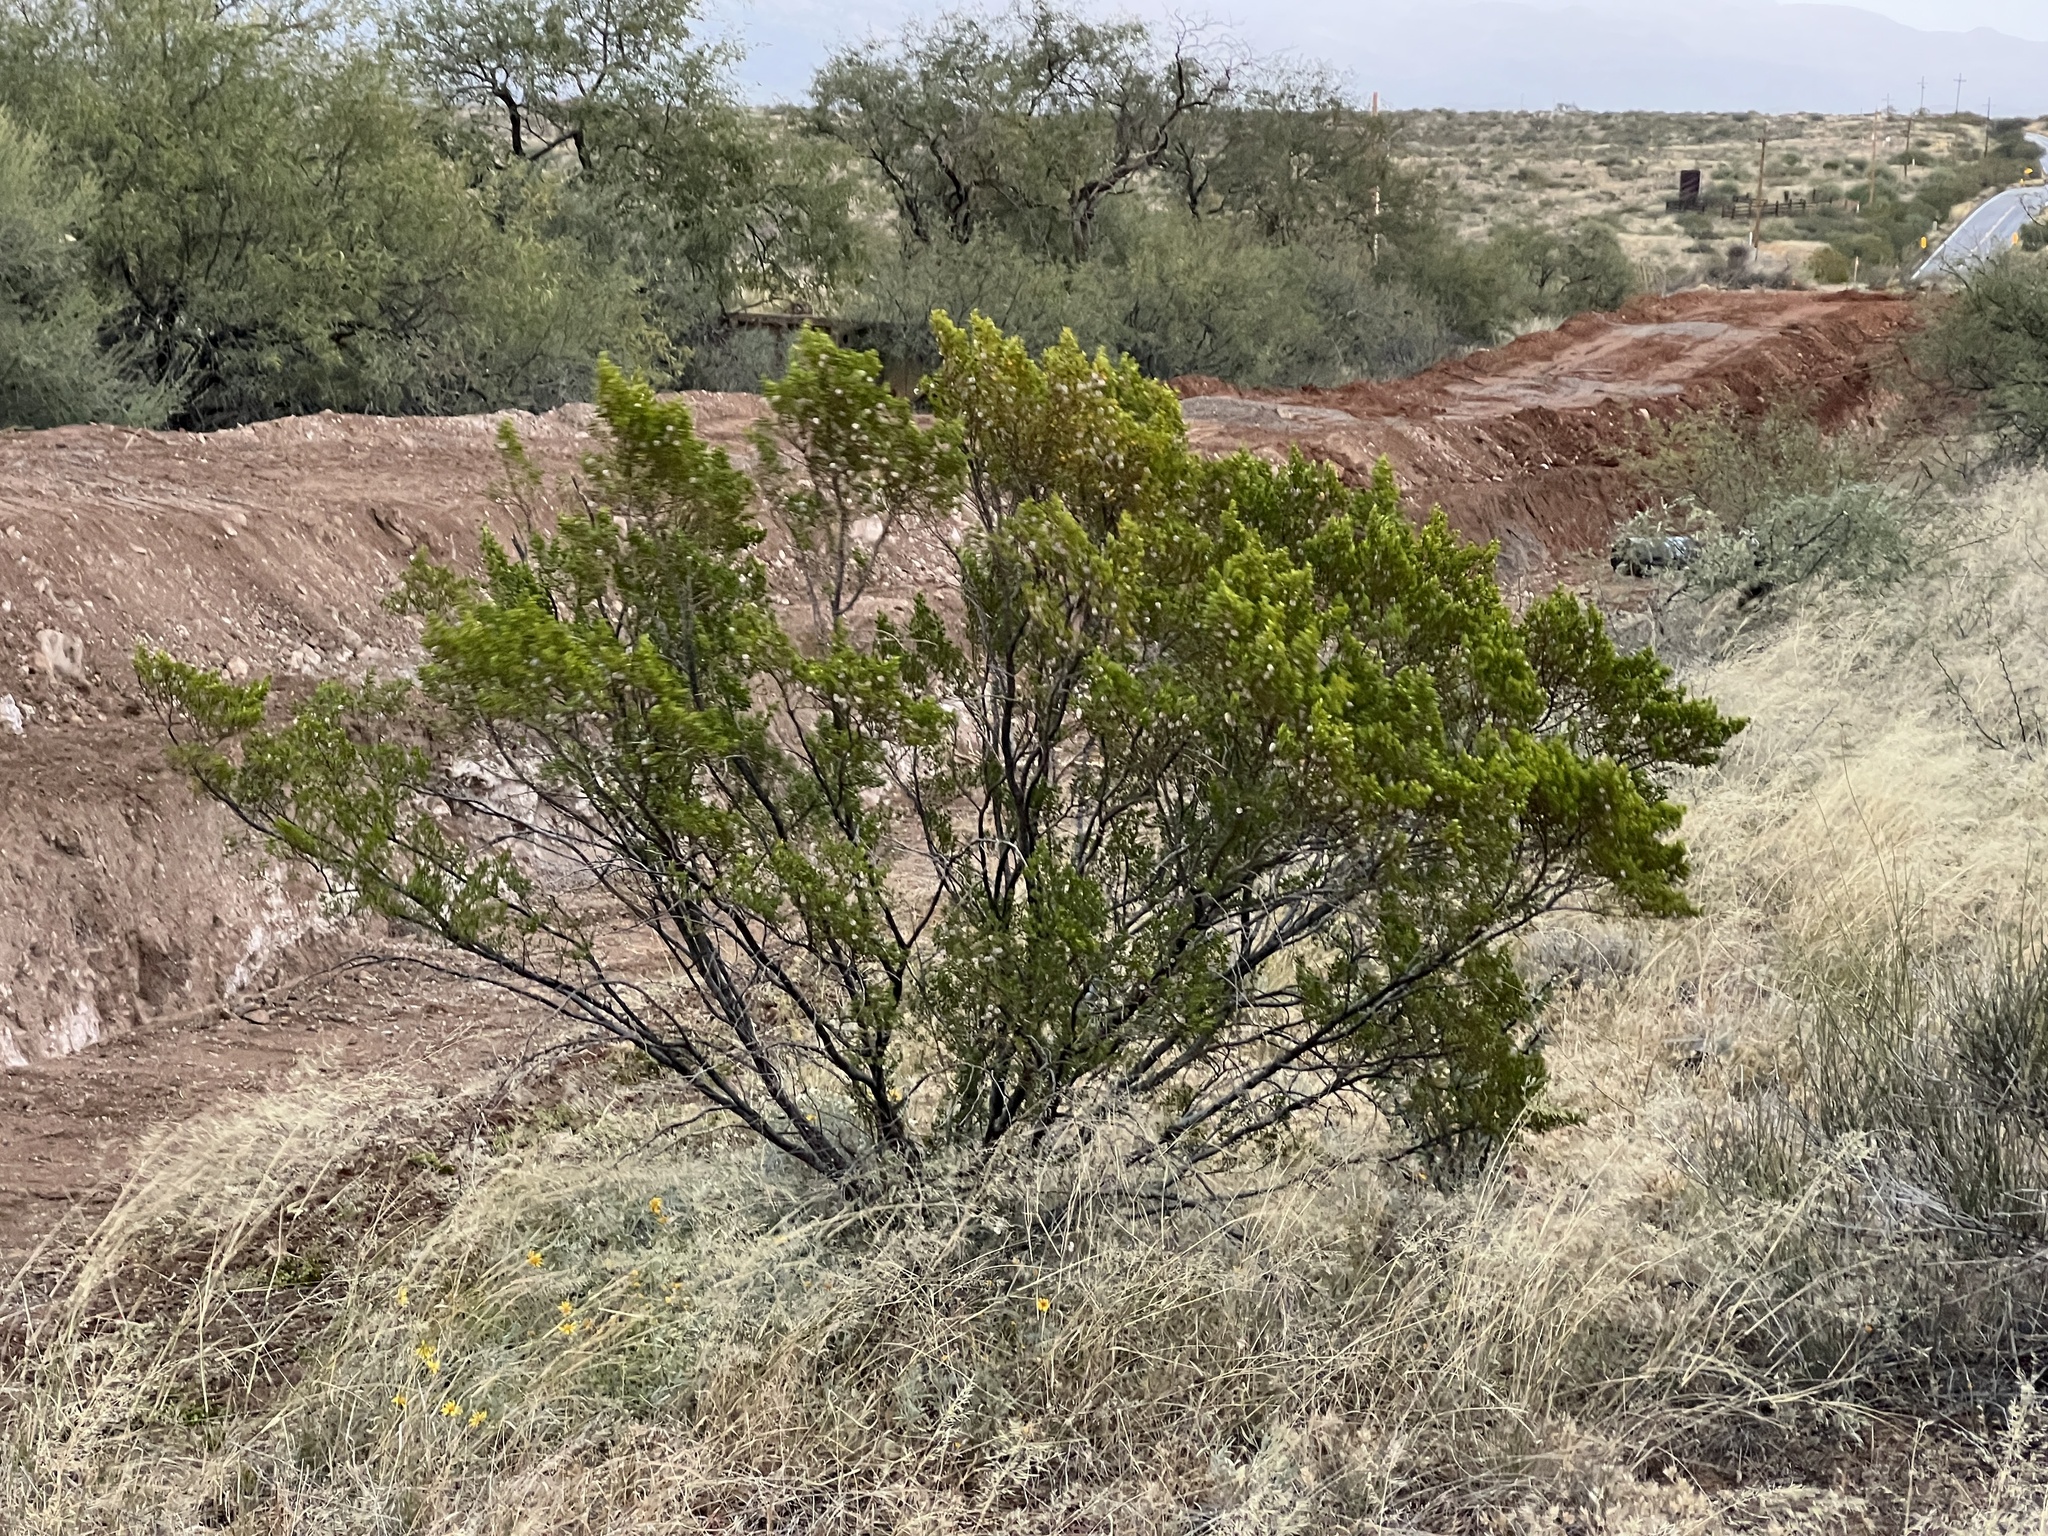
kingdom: Plantae
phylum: Tracheophyta
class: Magnoliopsida
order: Zygophyllales
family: Zygophyllaceae
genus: Larrea
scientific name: Larrea tridentata
